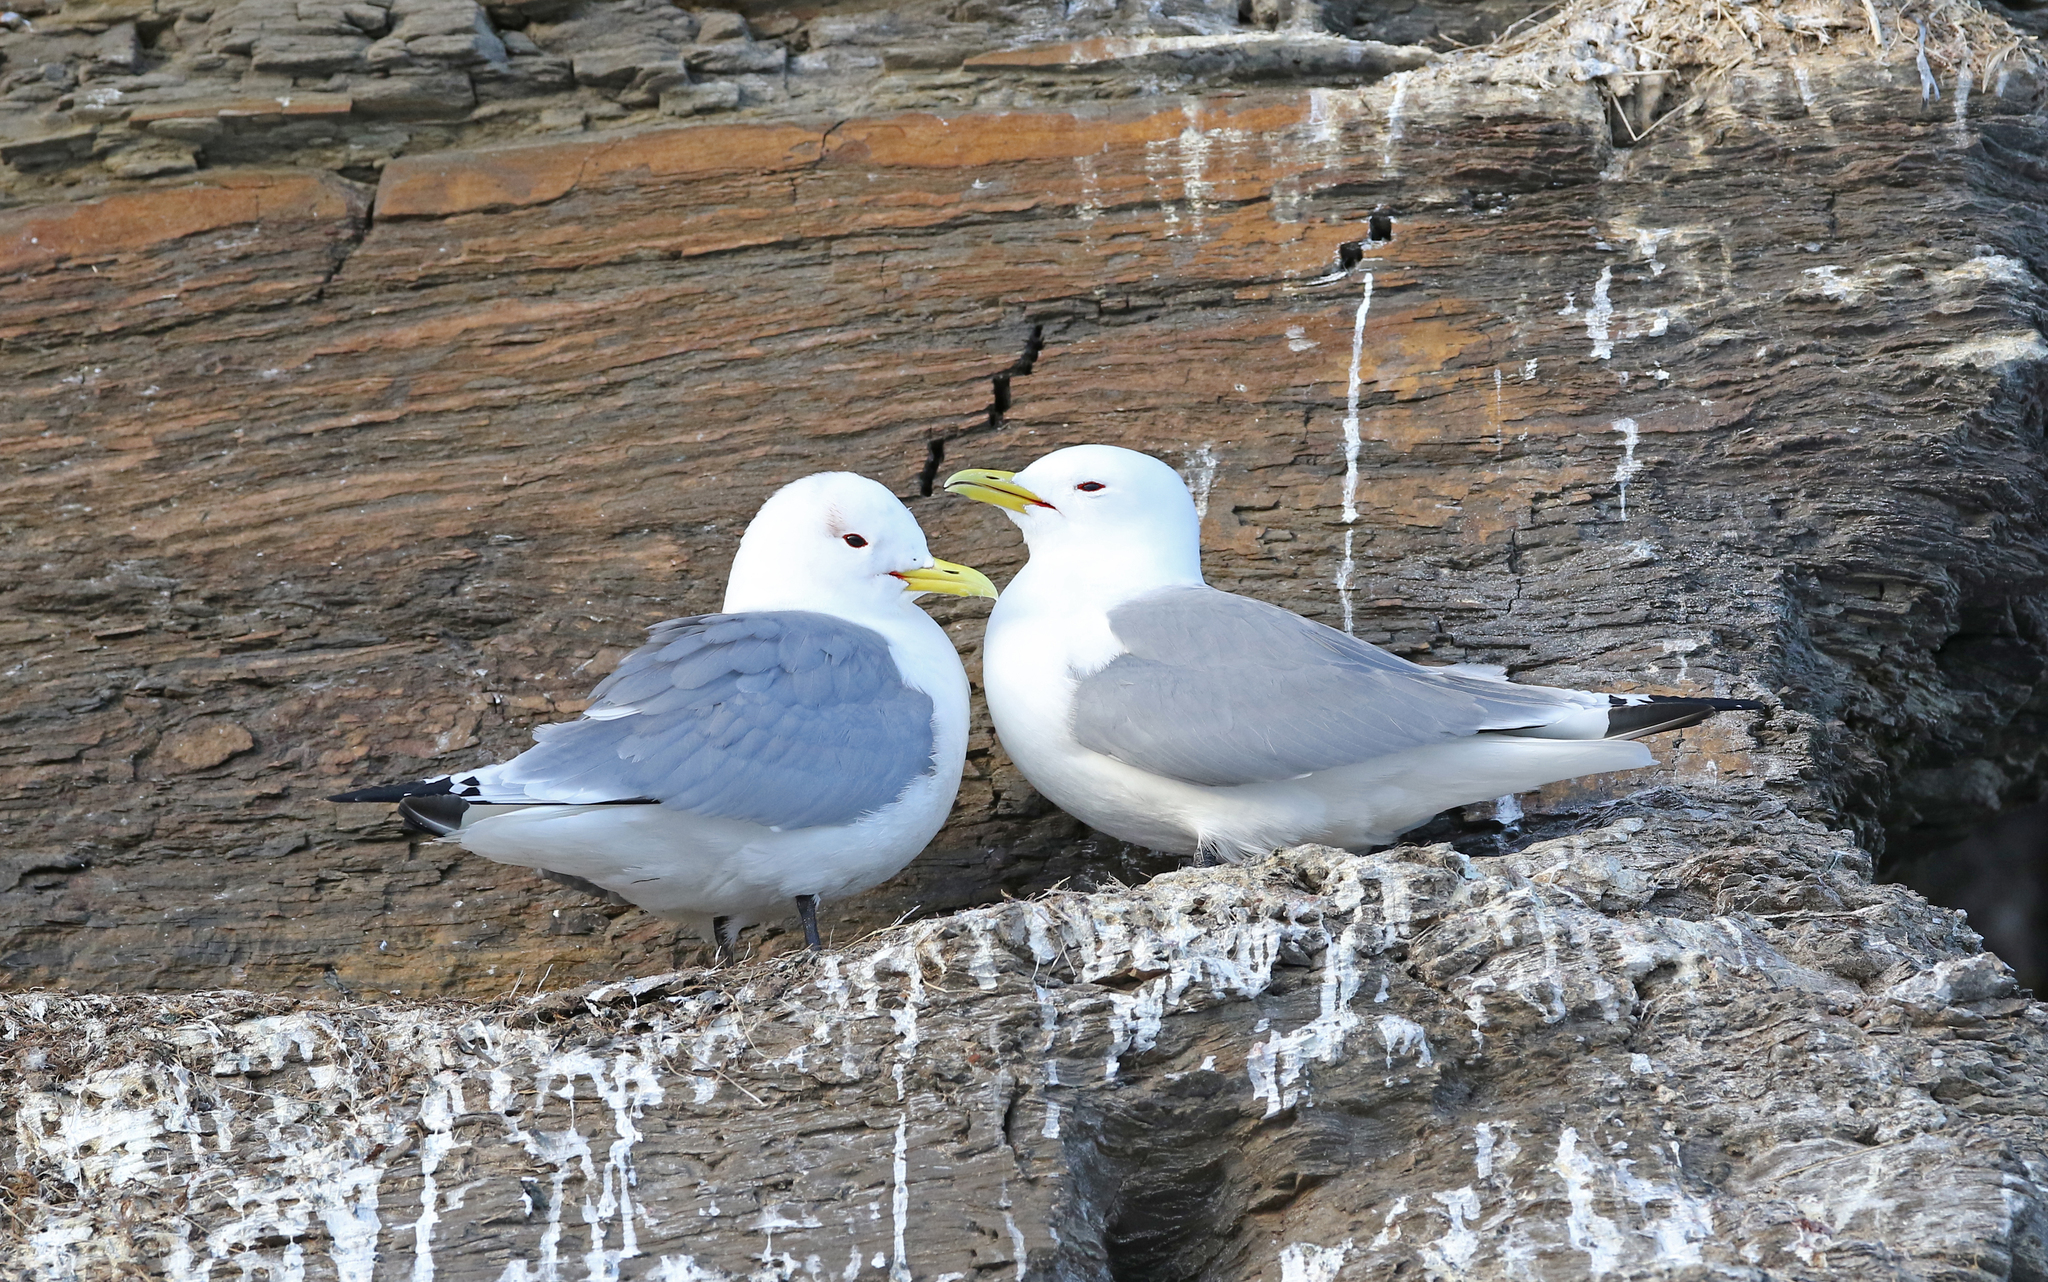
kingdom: Animalia
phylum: Chordata
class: Aves
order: Charadriiformes
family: Laridae
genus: Rissa
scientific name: Rissa tridactyla
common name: Black-legged kittiwake
